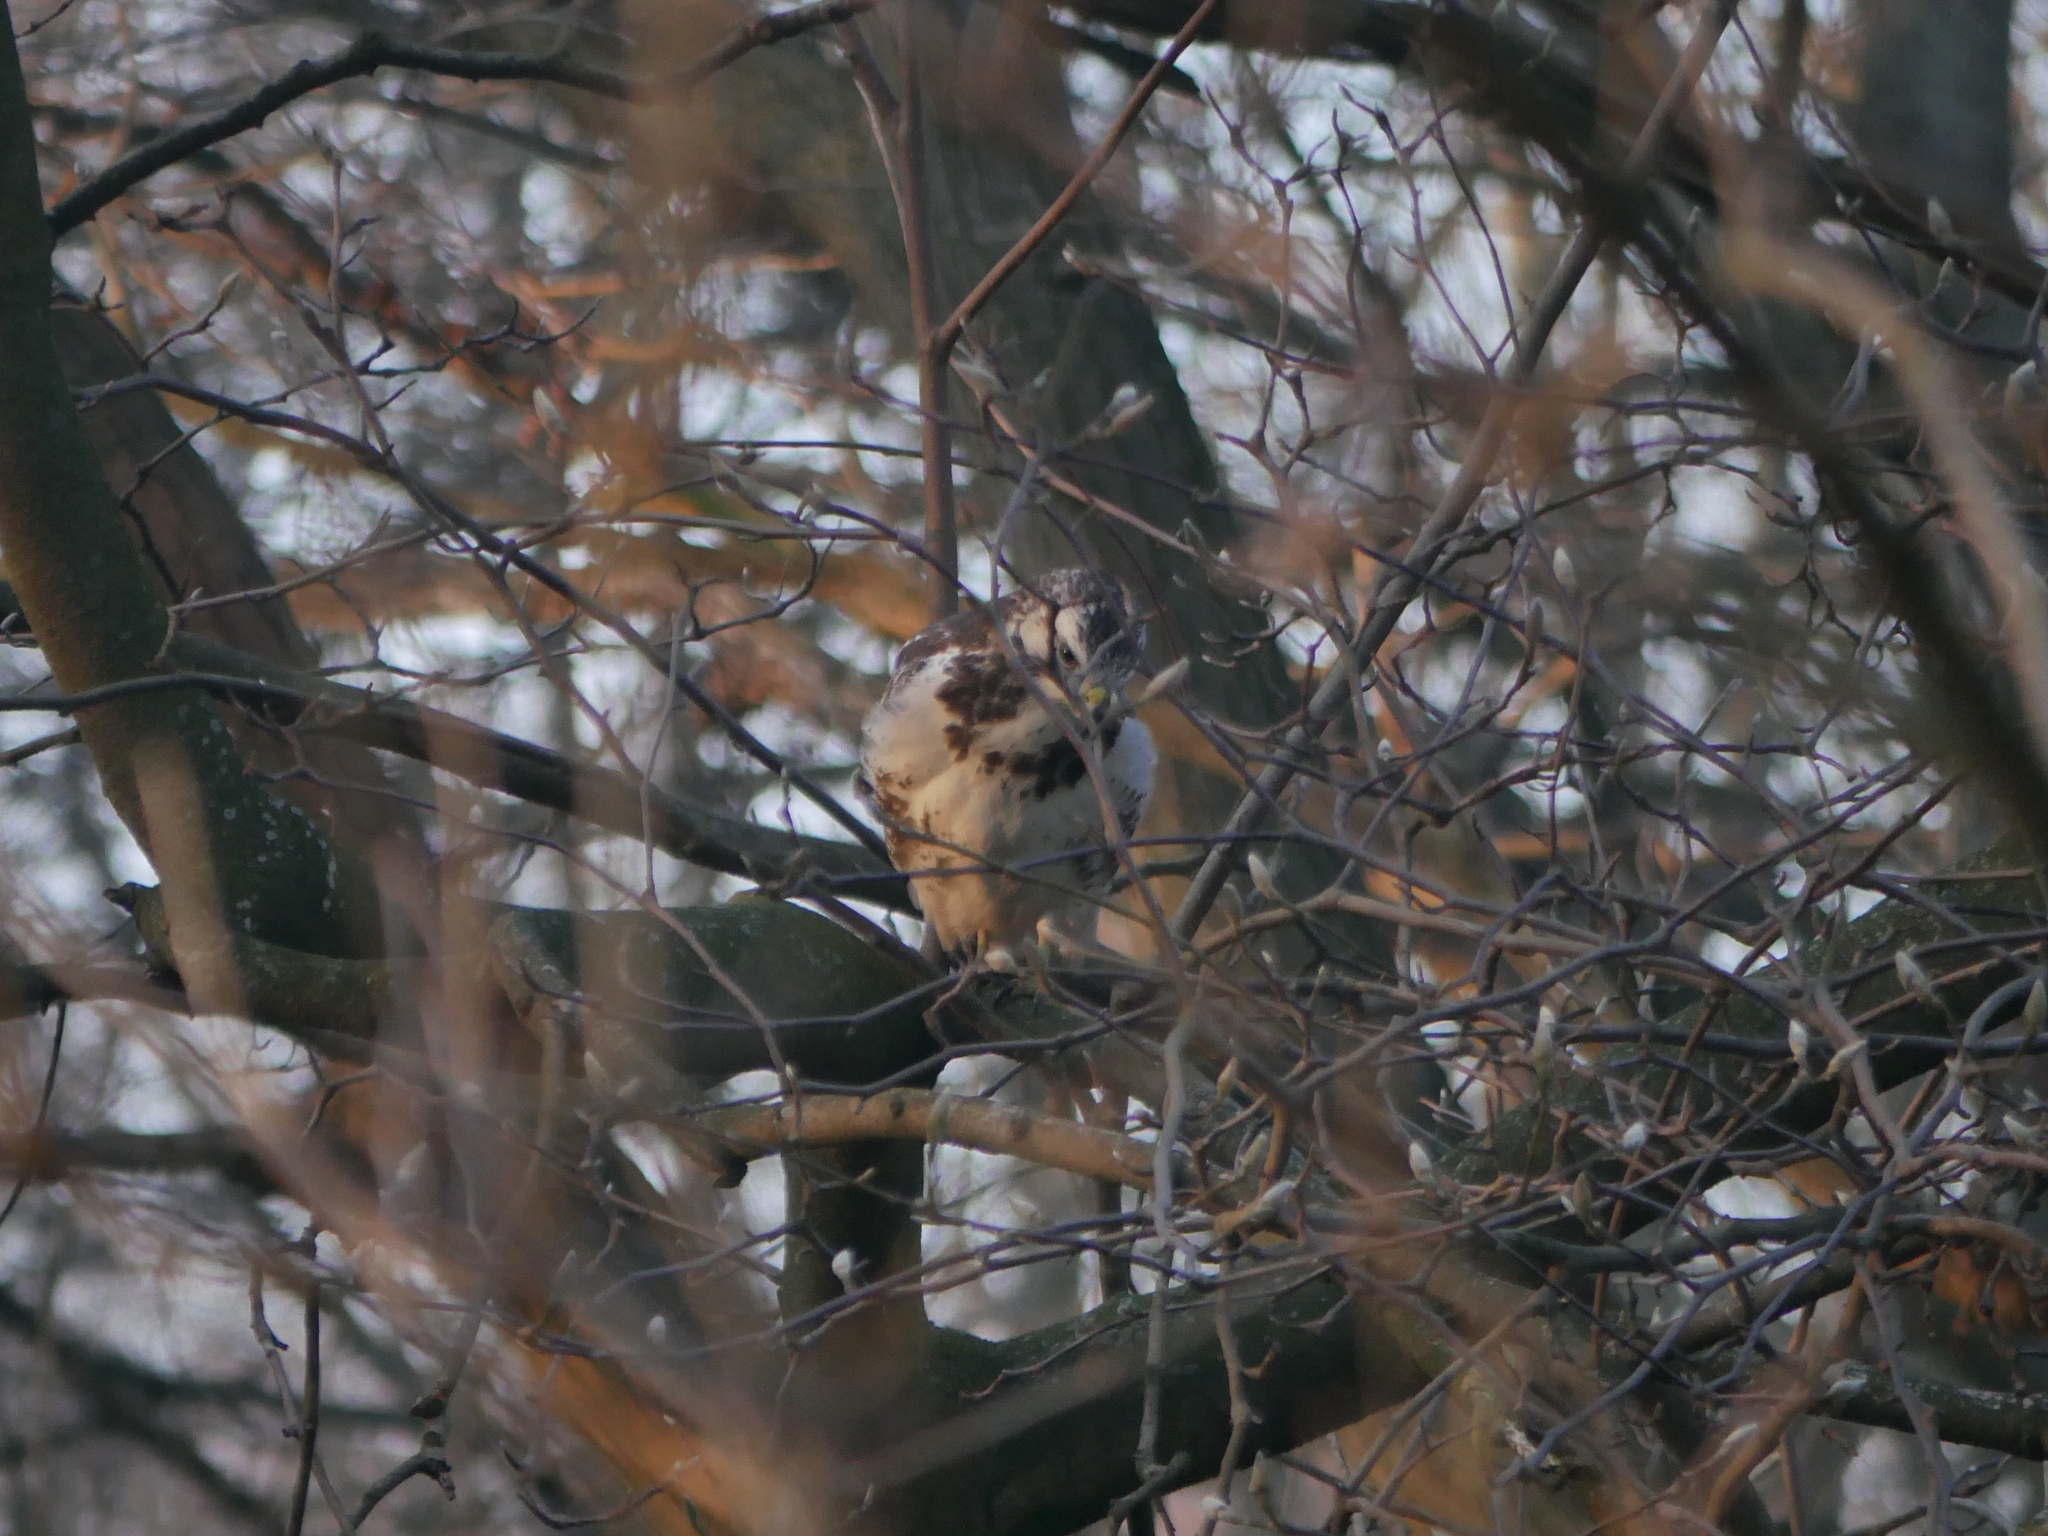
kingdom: Animalia
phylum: Chordata
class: Aves
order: Accipitriformes
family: Accipitridae
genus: Buteo
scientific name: Buteo buteo
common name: Common buzzard
